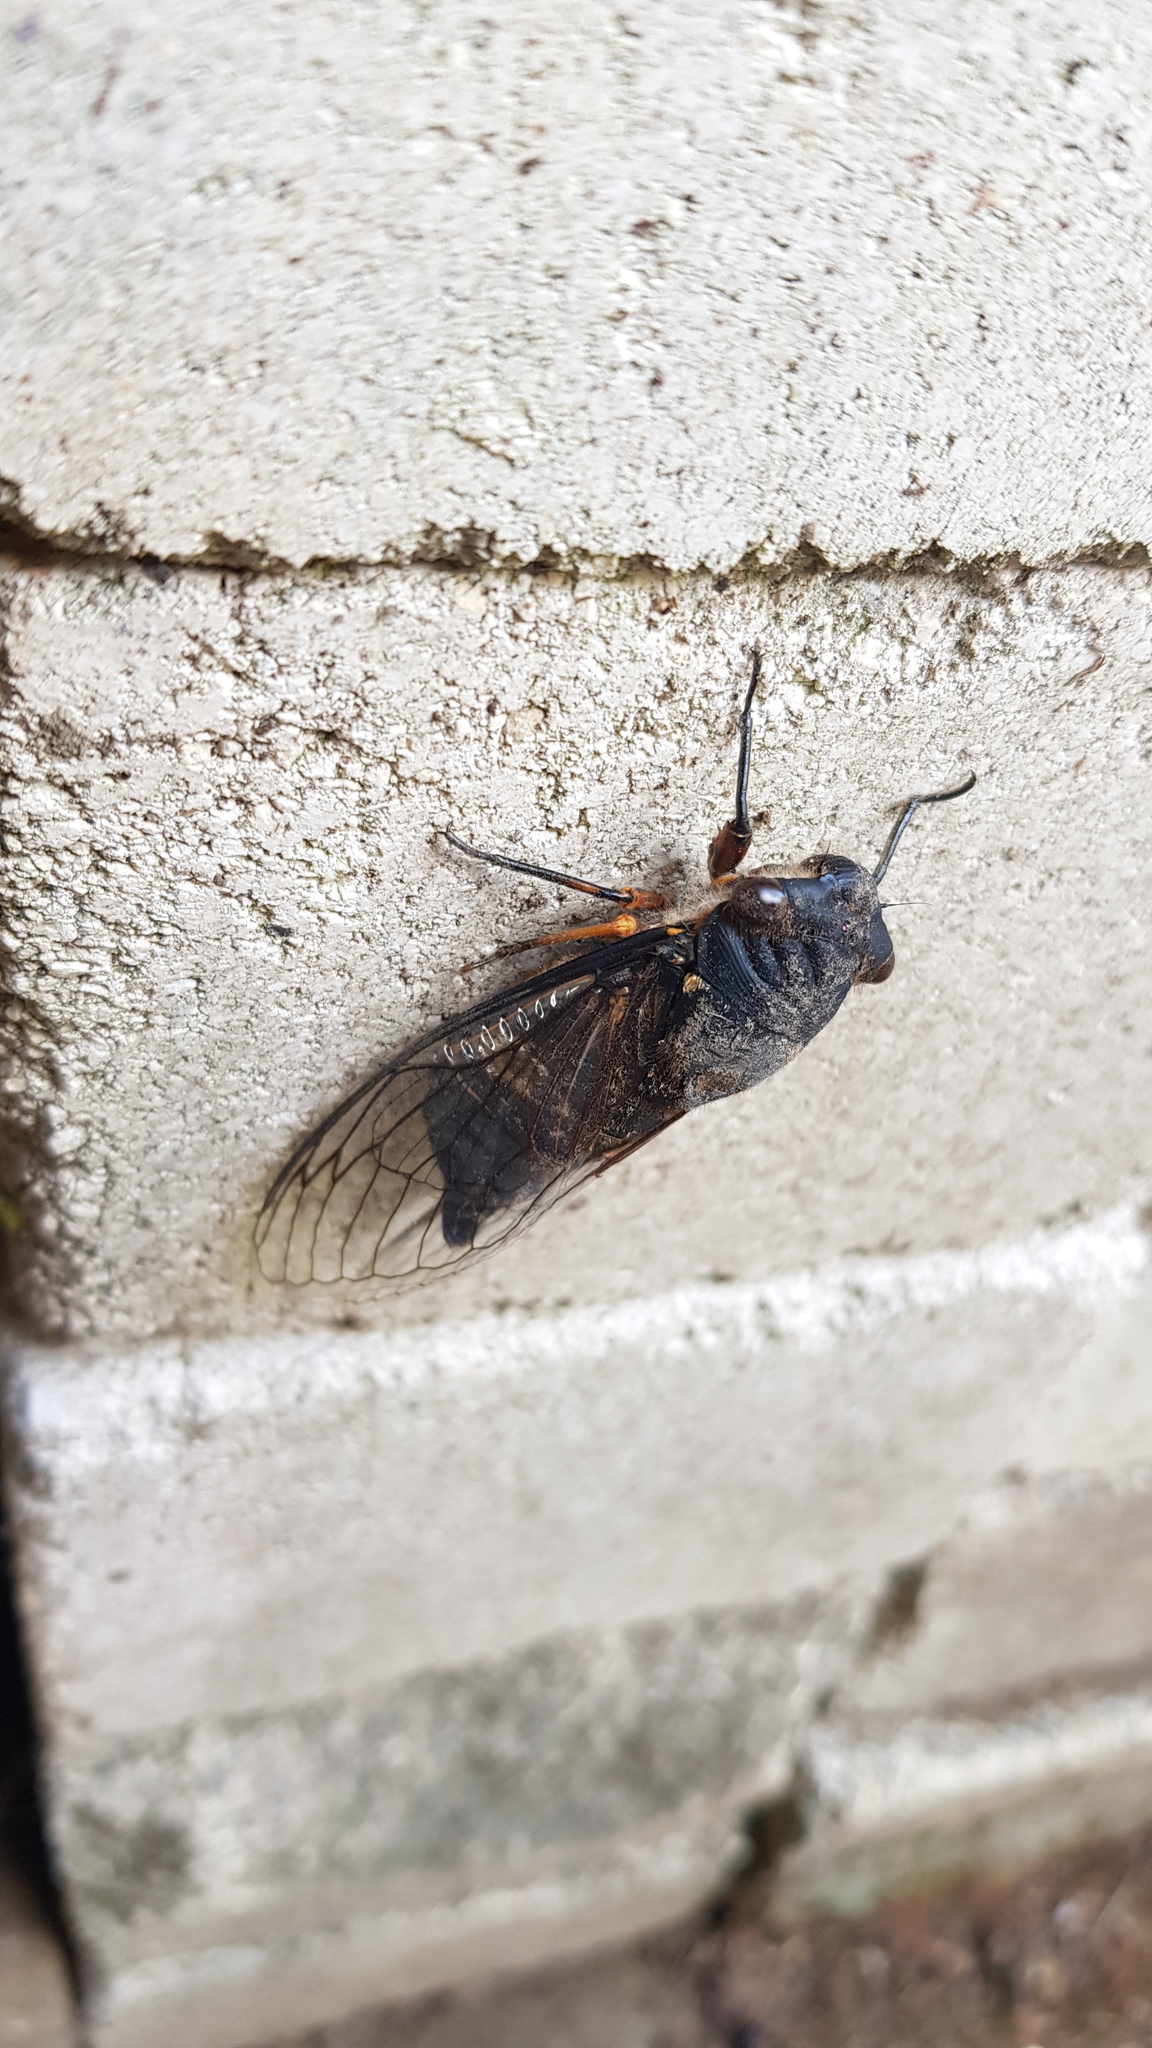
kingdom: Animalia
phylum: Arthropoda
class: Insecta
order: Hemiptera
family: Cicadidae
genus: Psaltoda
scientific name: Psaltoda plaga
